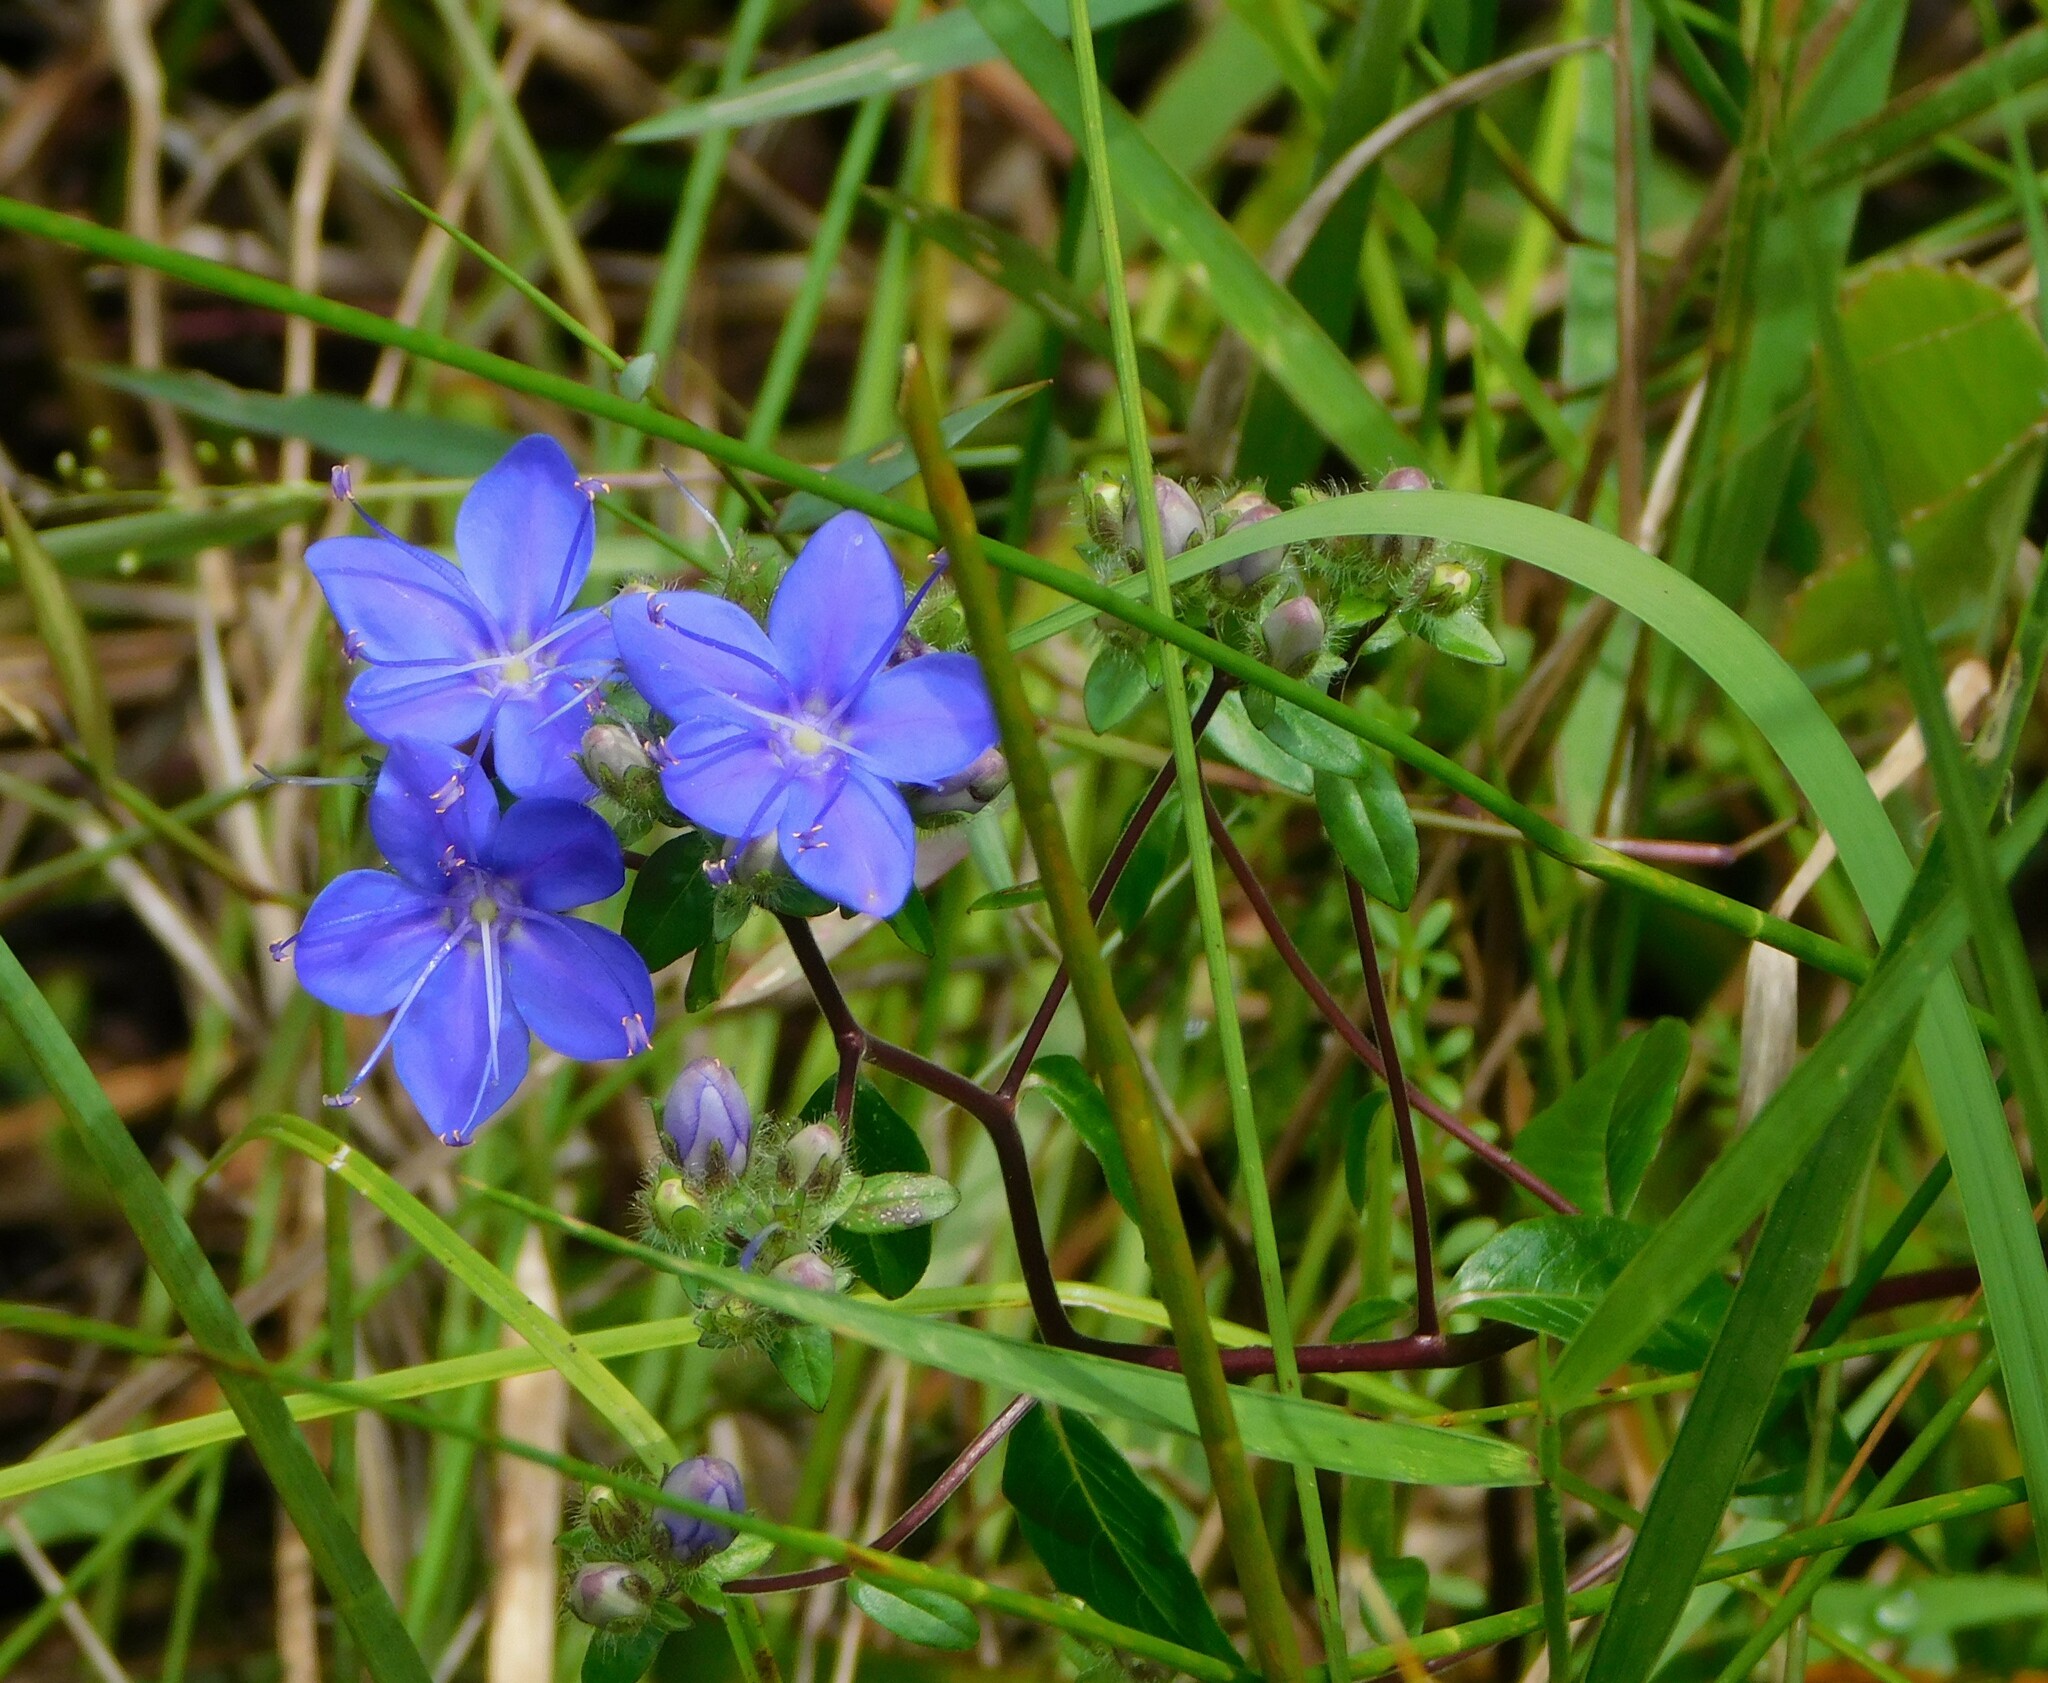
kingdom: Plantae
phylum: Tracheophyta
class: Magnoliopsida
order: Solanales
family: Hydroleaceae
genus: Hydrolea
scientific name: Hydrolea corymbosa
